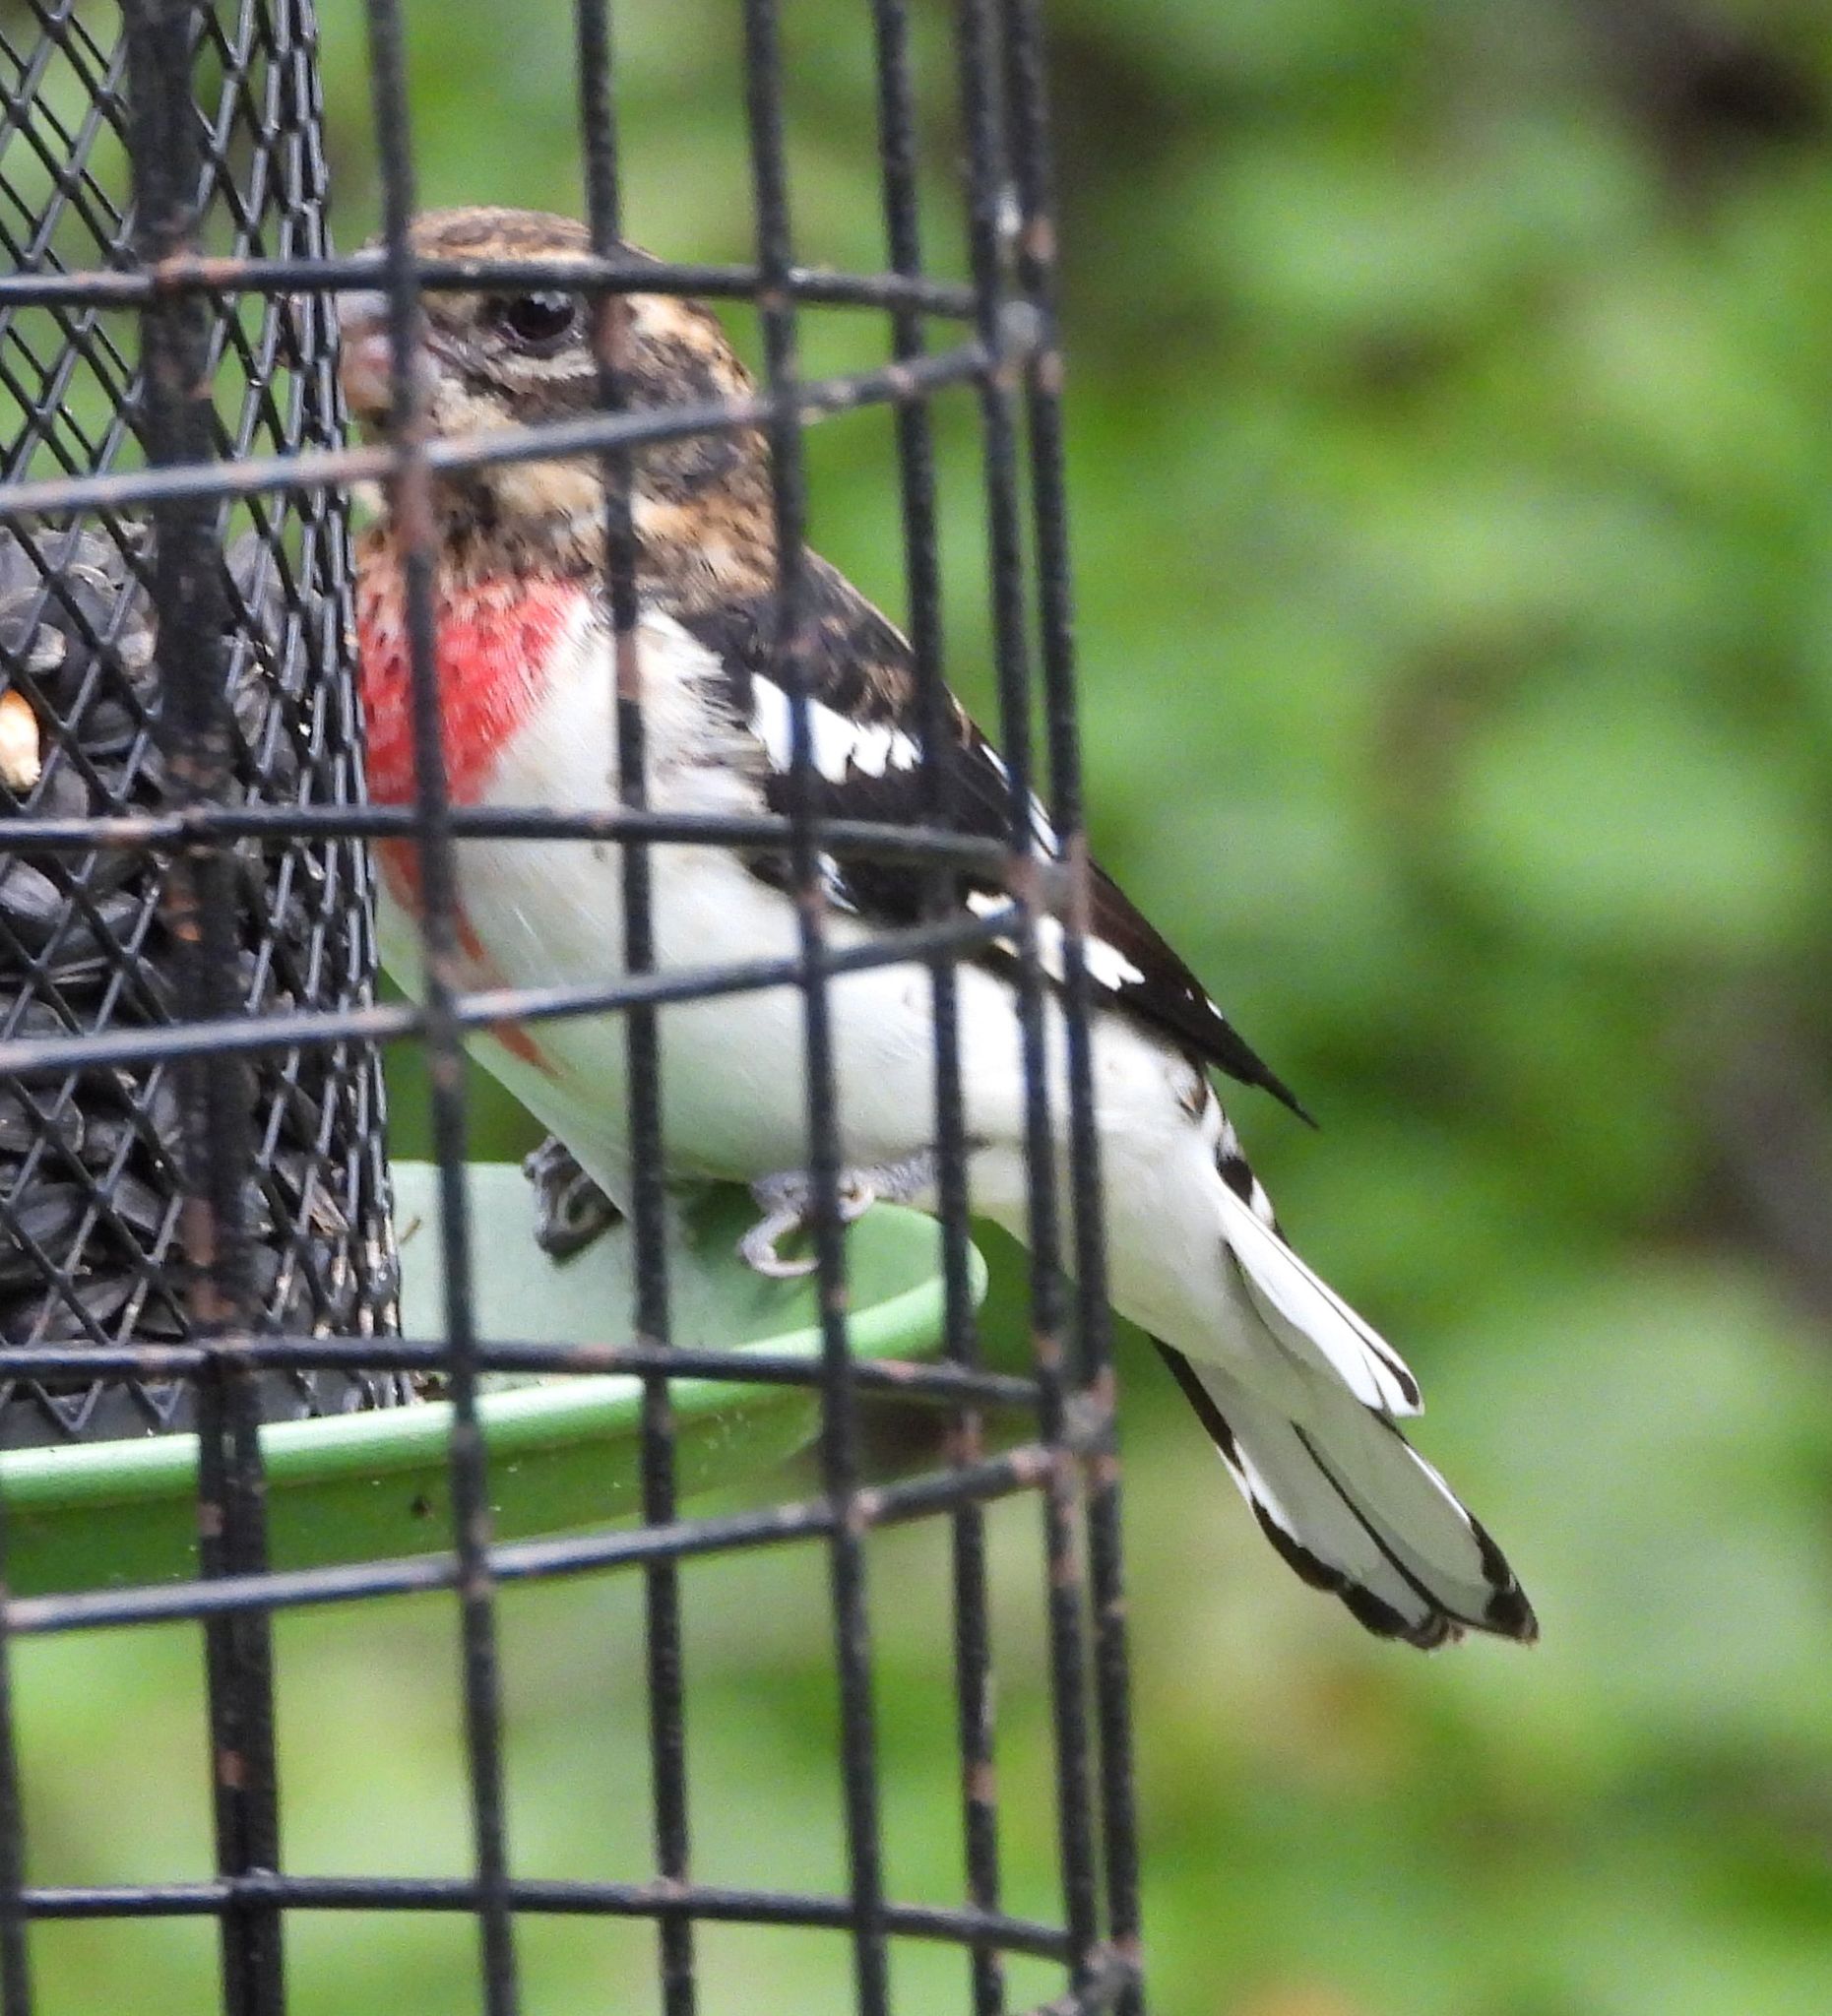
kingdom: Animalia
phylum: Chordata
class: Aves
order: Passeriformes
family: Cardinalidae
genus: Pheucticus
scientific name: Pheucticus ludovicianus
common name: Rose-breasted grosbeak
